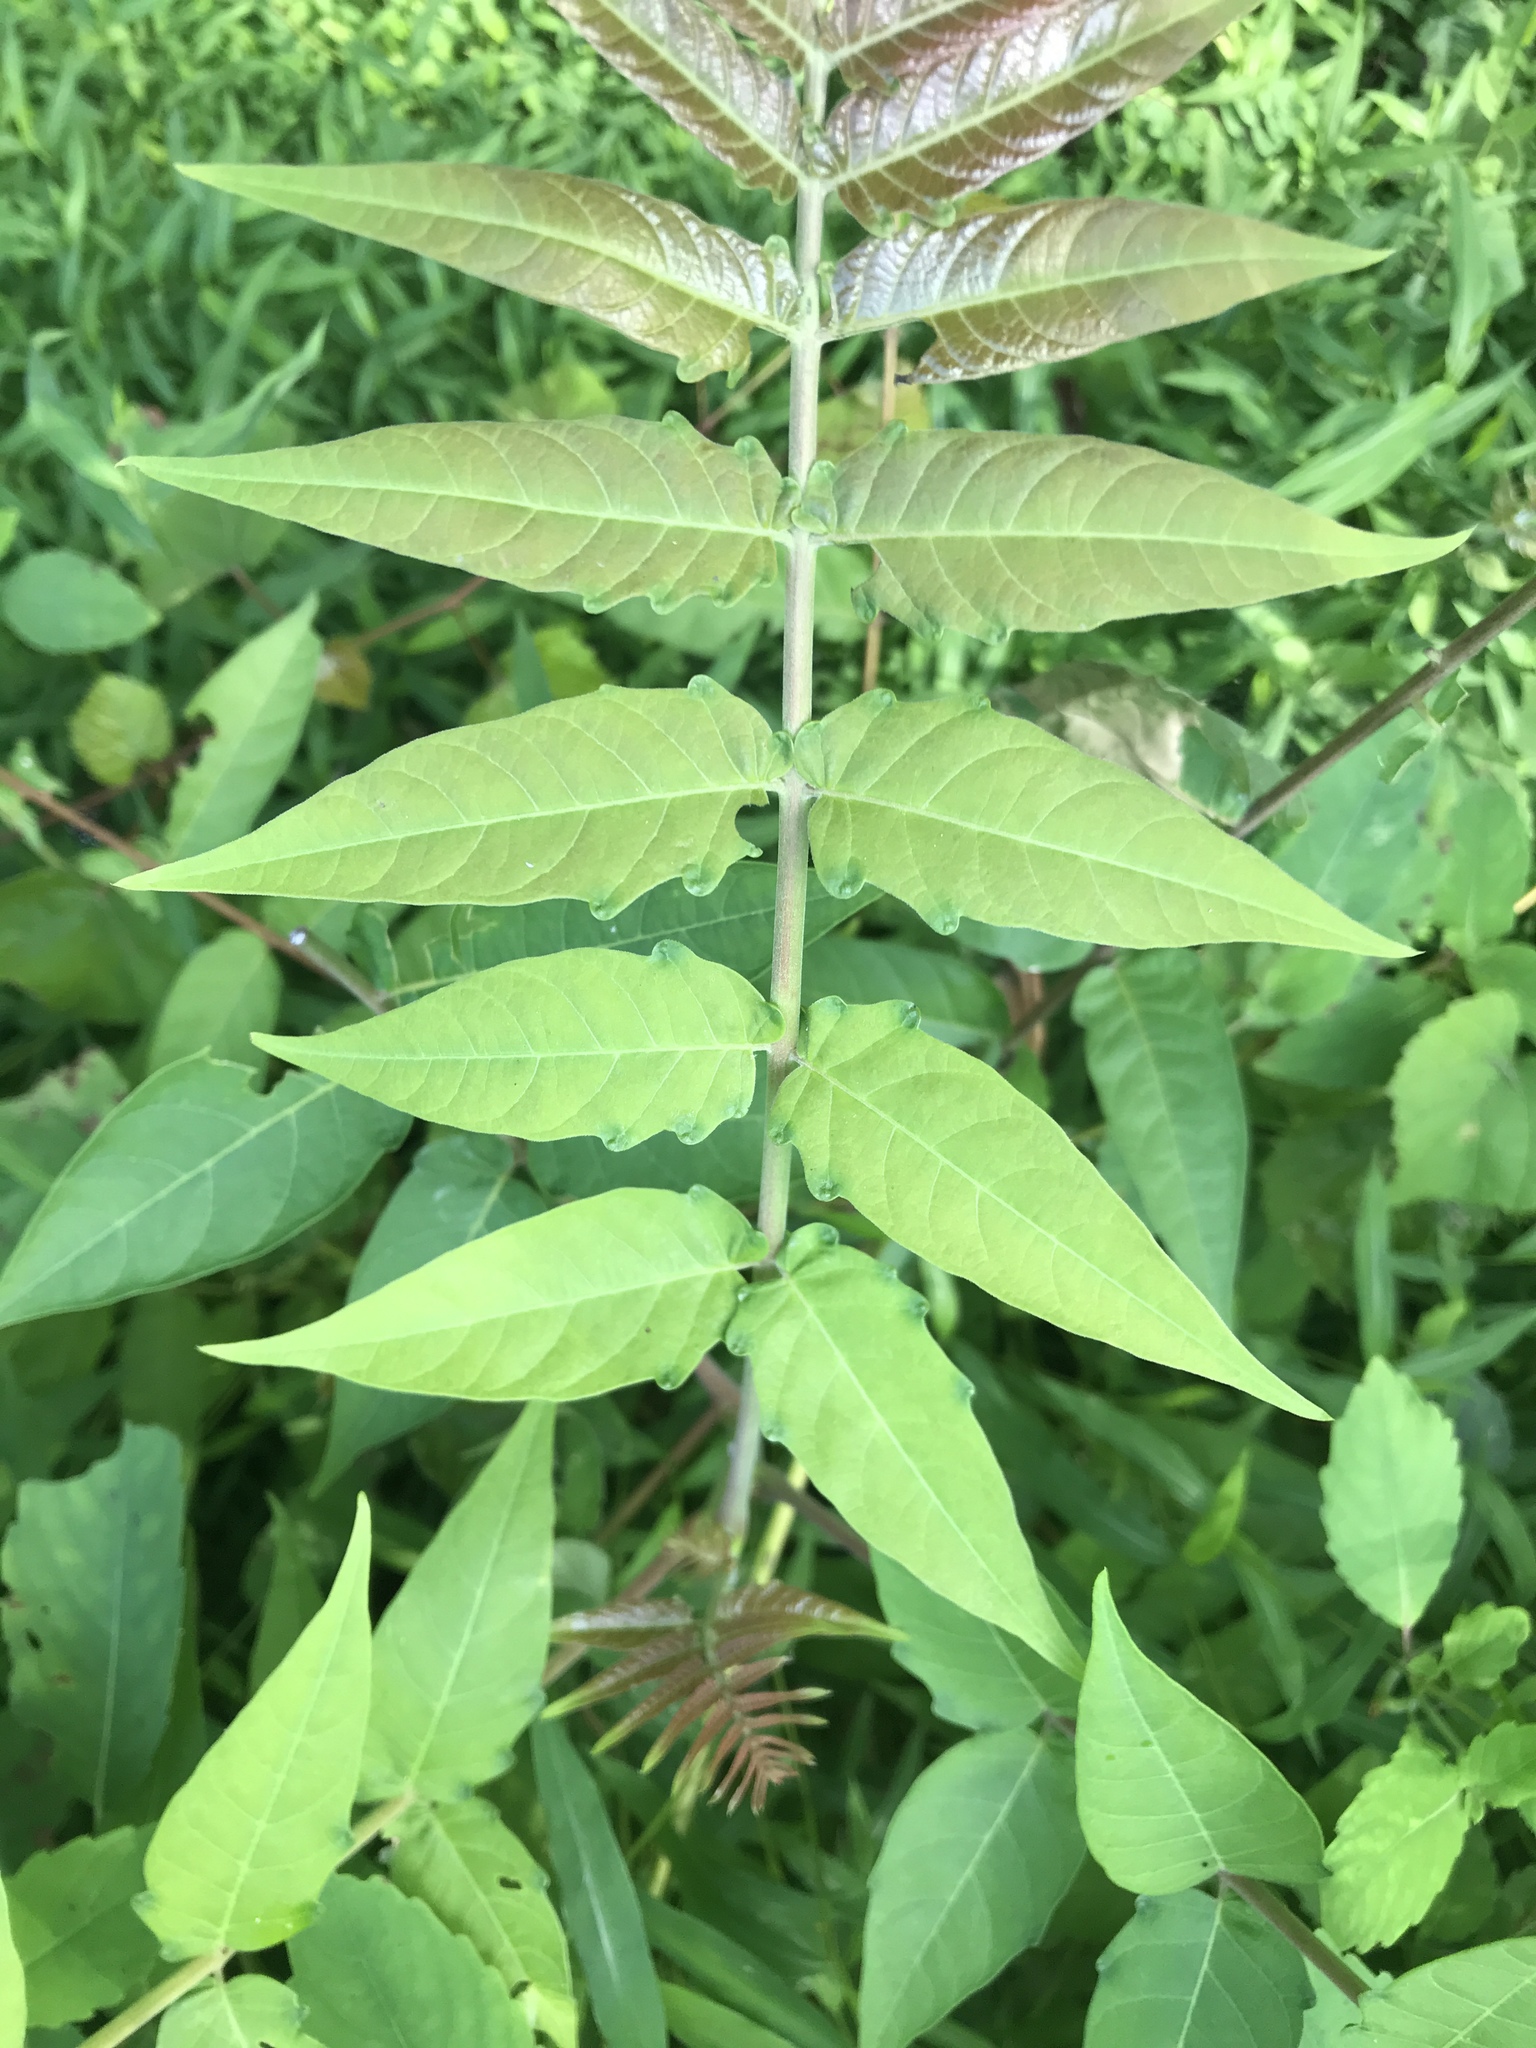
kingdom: Plantae
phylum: Tracheophyta
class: Magnoliopsida
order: Sapindales
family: Simaroubaceae
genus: Ailanthus
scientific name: Ailanthus altissima
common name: Tree-of-heaven
